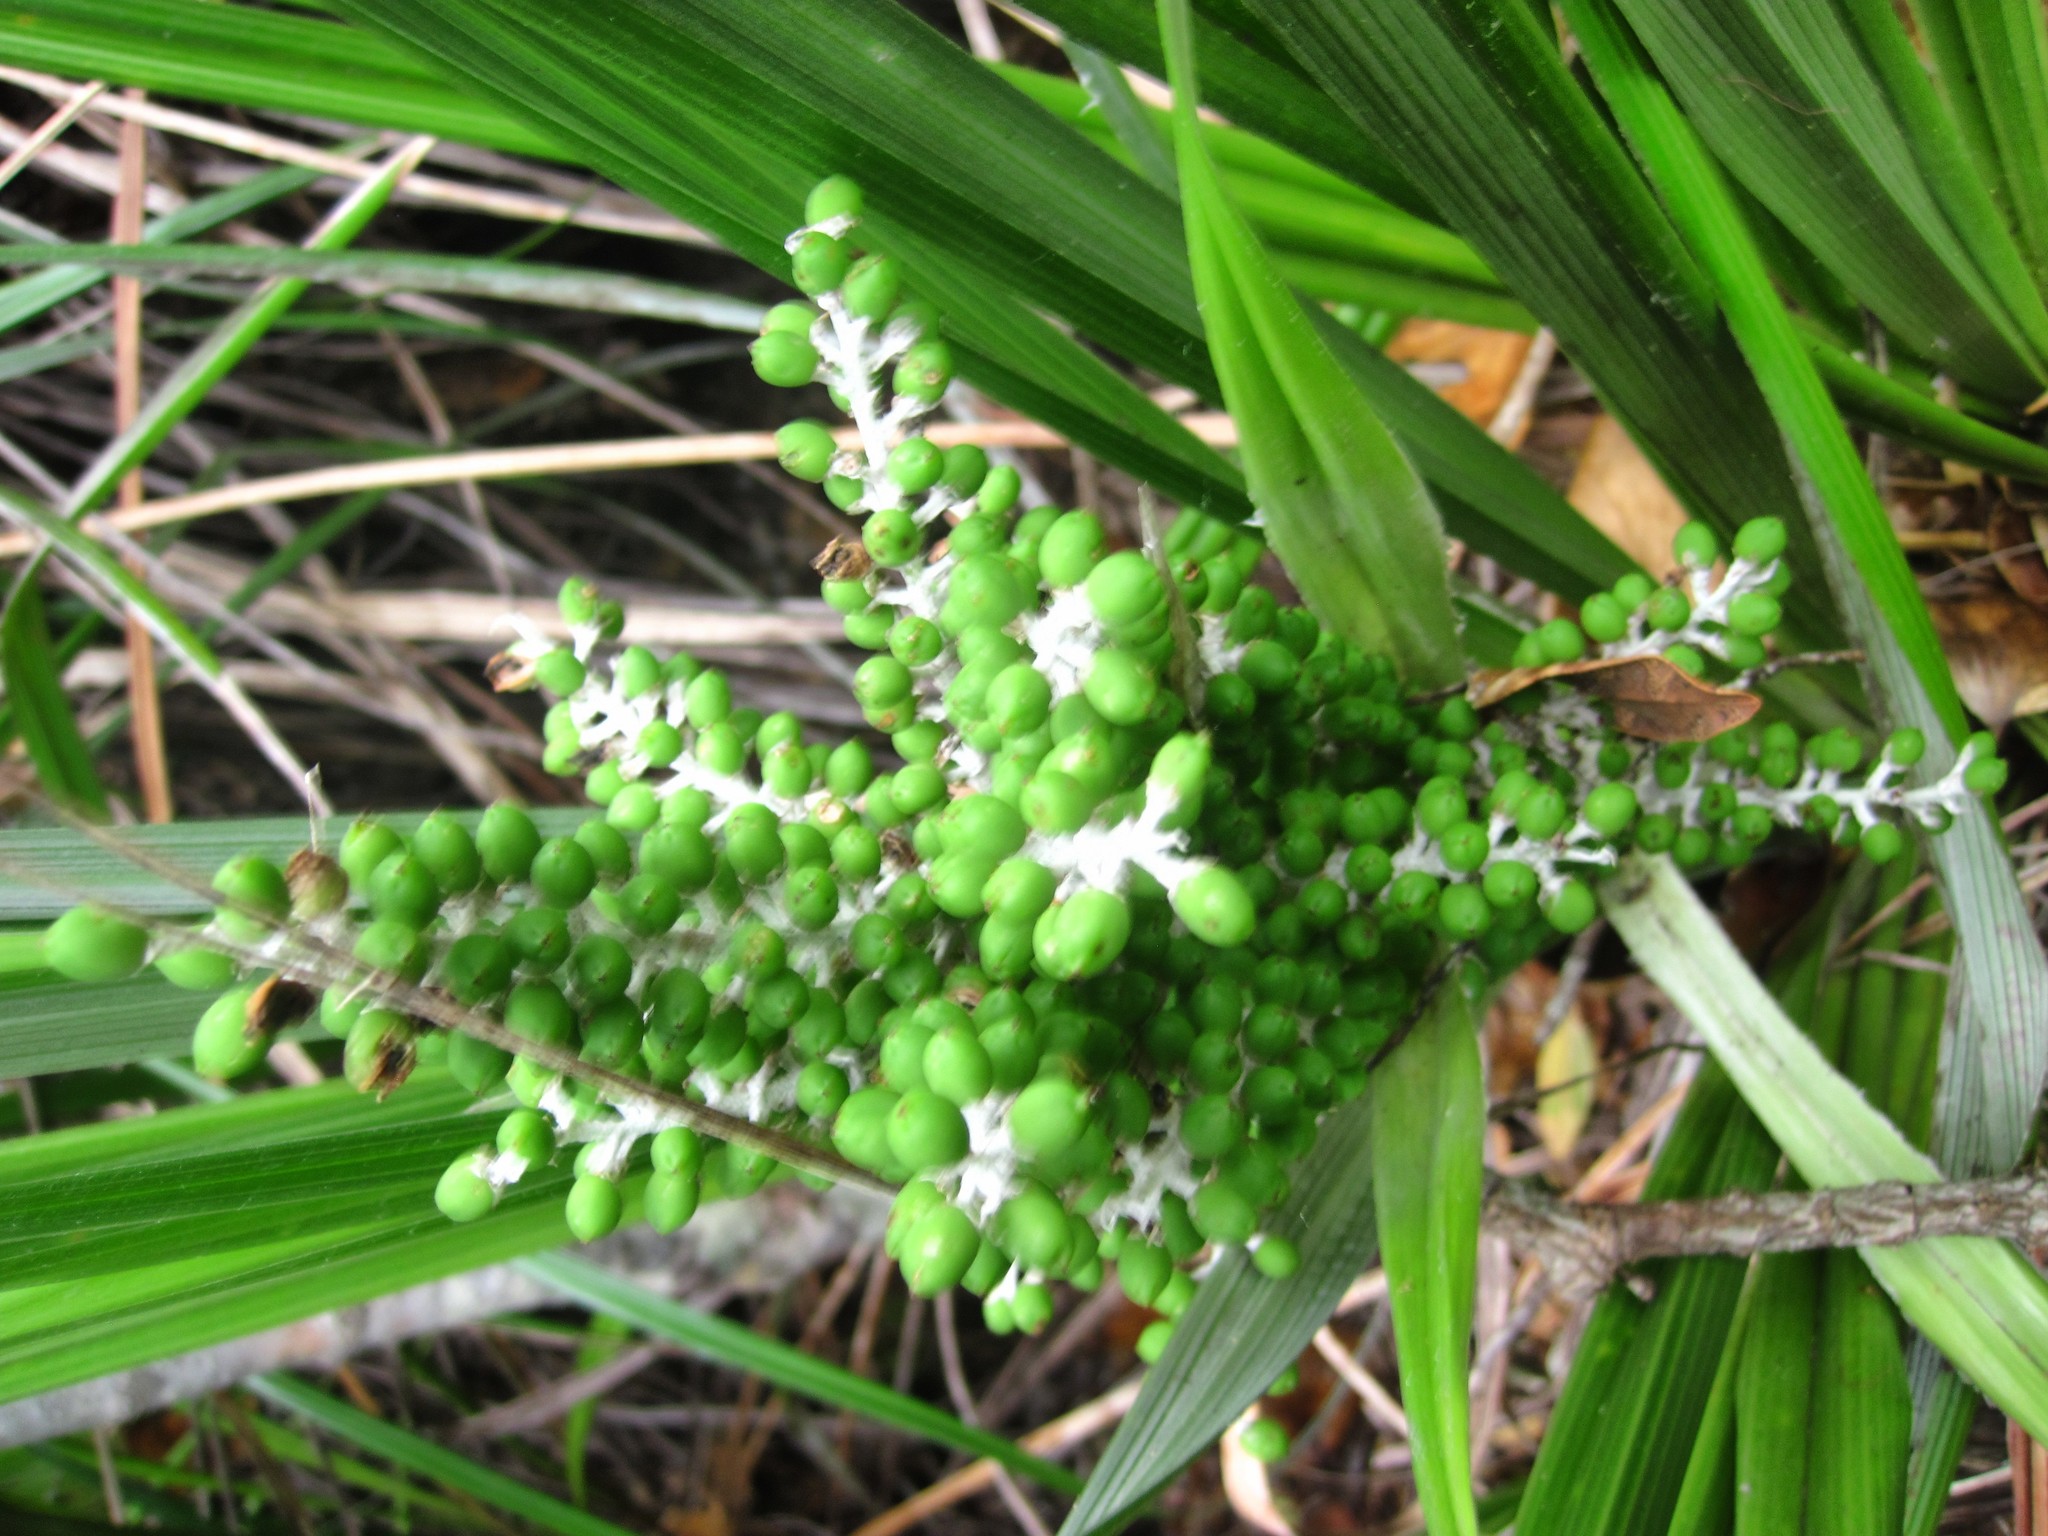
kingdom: Plantae
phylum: Tracheophyta
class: Liliopsida
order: Asparagales
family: Asteliaceae
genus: Astelia
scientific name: Astelia banksii
